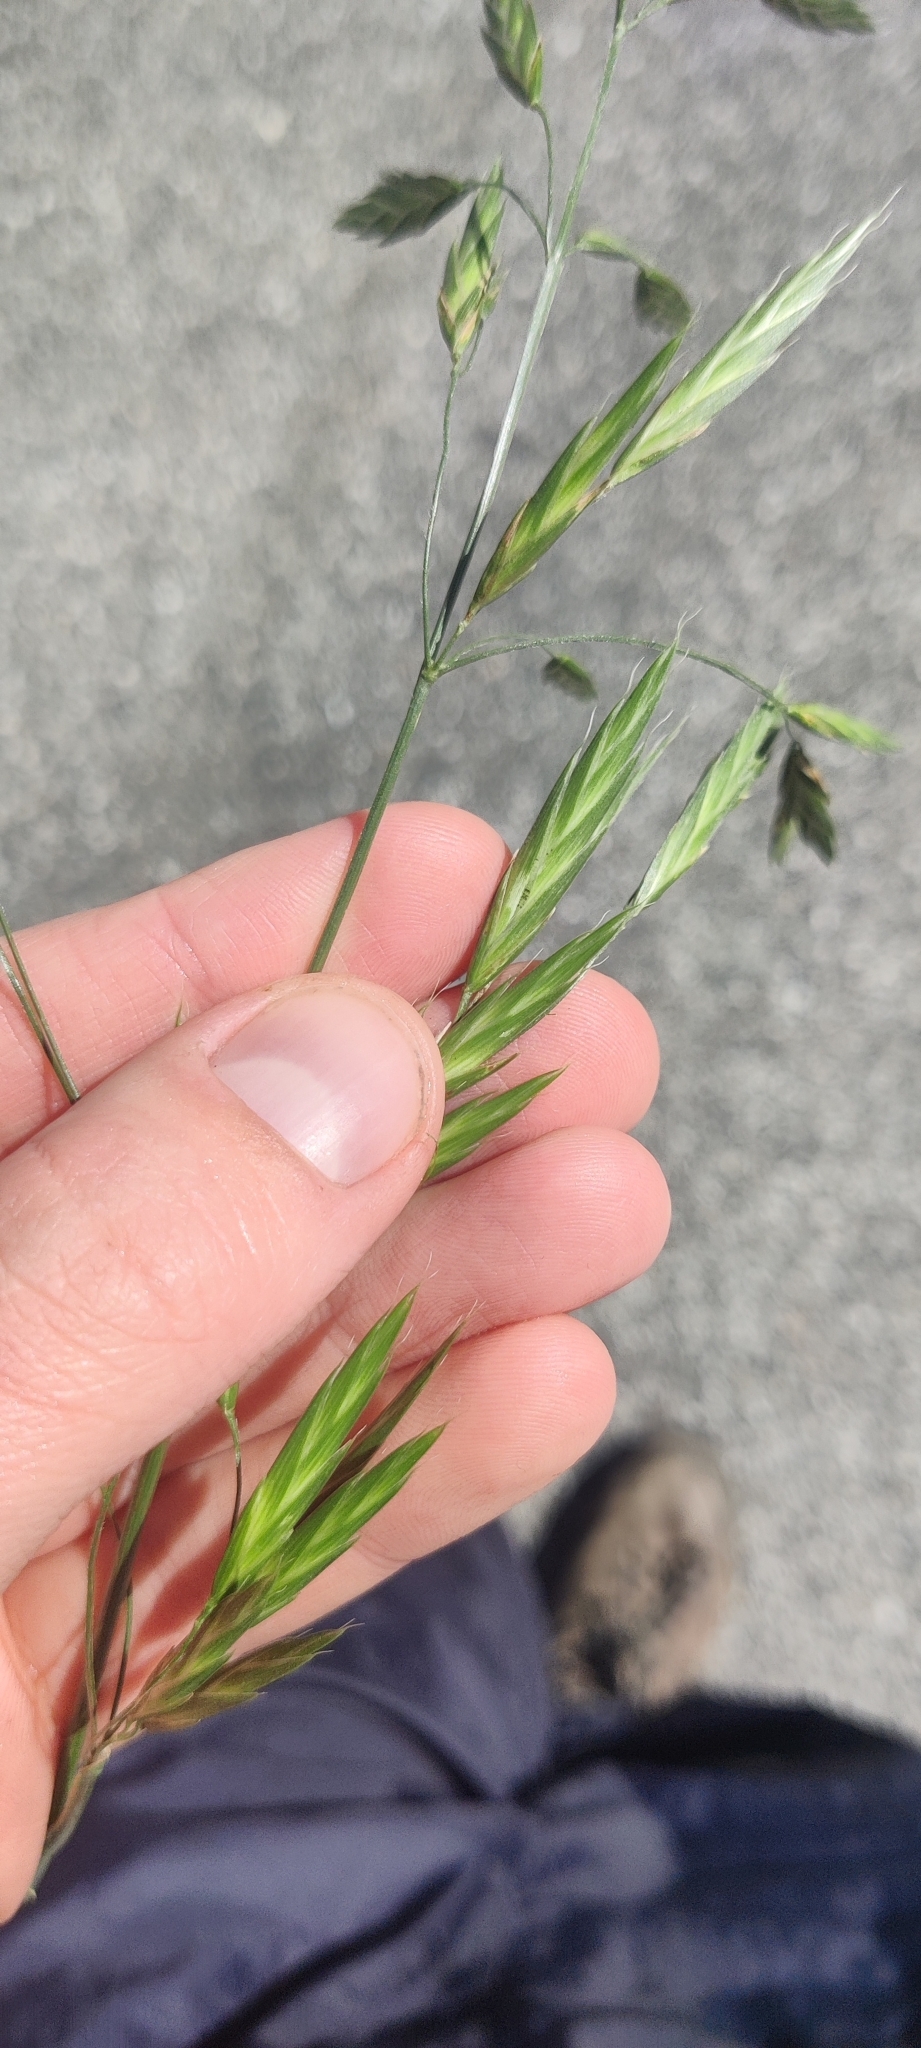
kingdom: Plantae
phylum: Tracheophyta
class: Liliopsida
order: Poales
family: Poaceae
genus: Bromus
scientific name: Bromus catharticus
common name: Rescuegrass
